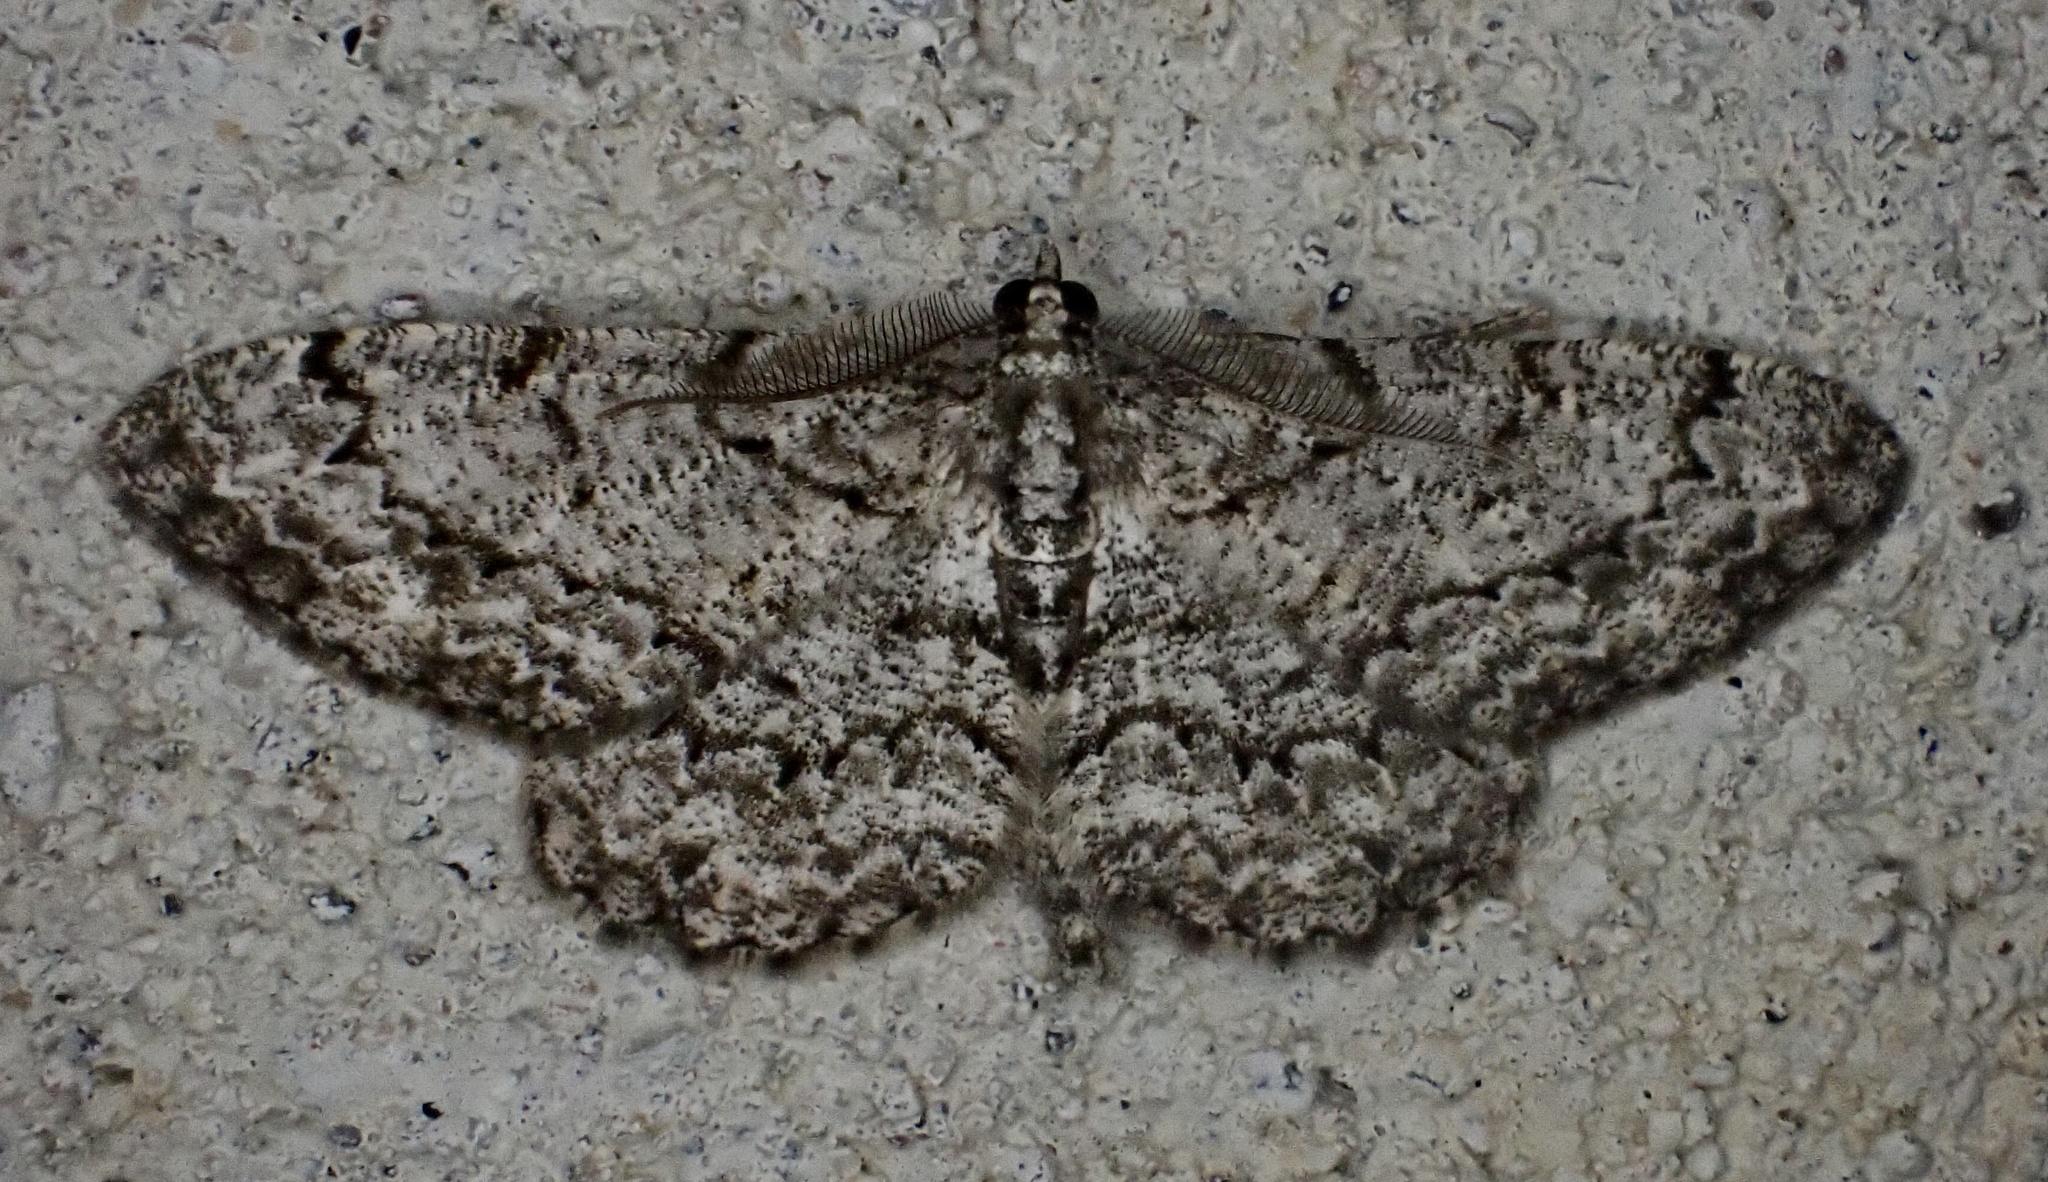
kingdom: Animalia
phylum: Arthropoda
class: Insecta
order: Lepidoptera
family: Geometridae
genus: Protoboarmia
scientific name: Protoboarmia porcelaria
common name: Porcelain gray
